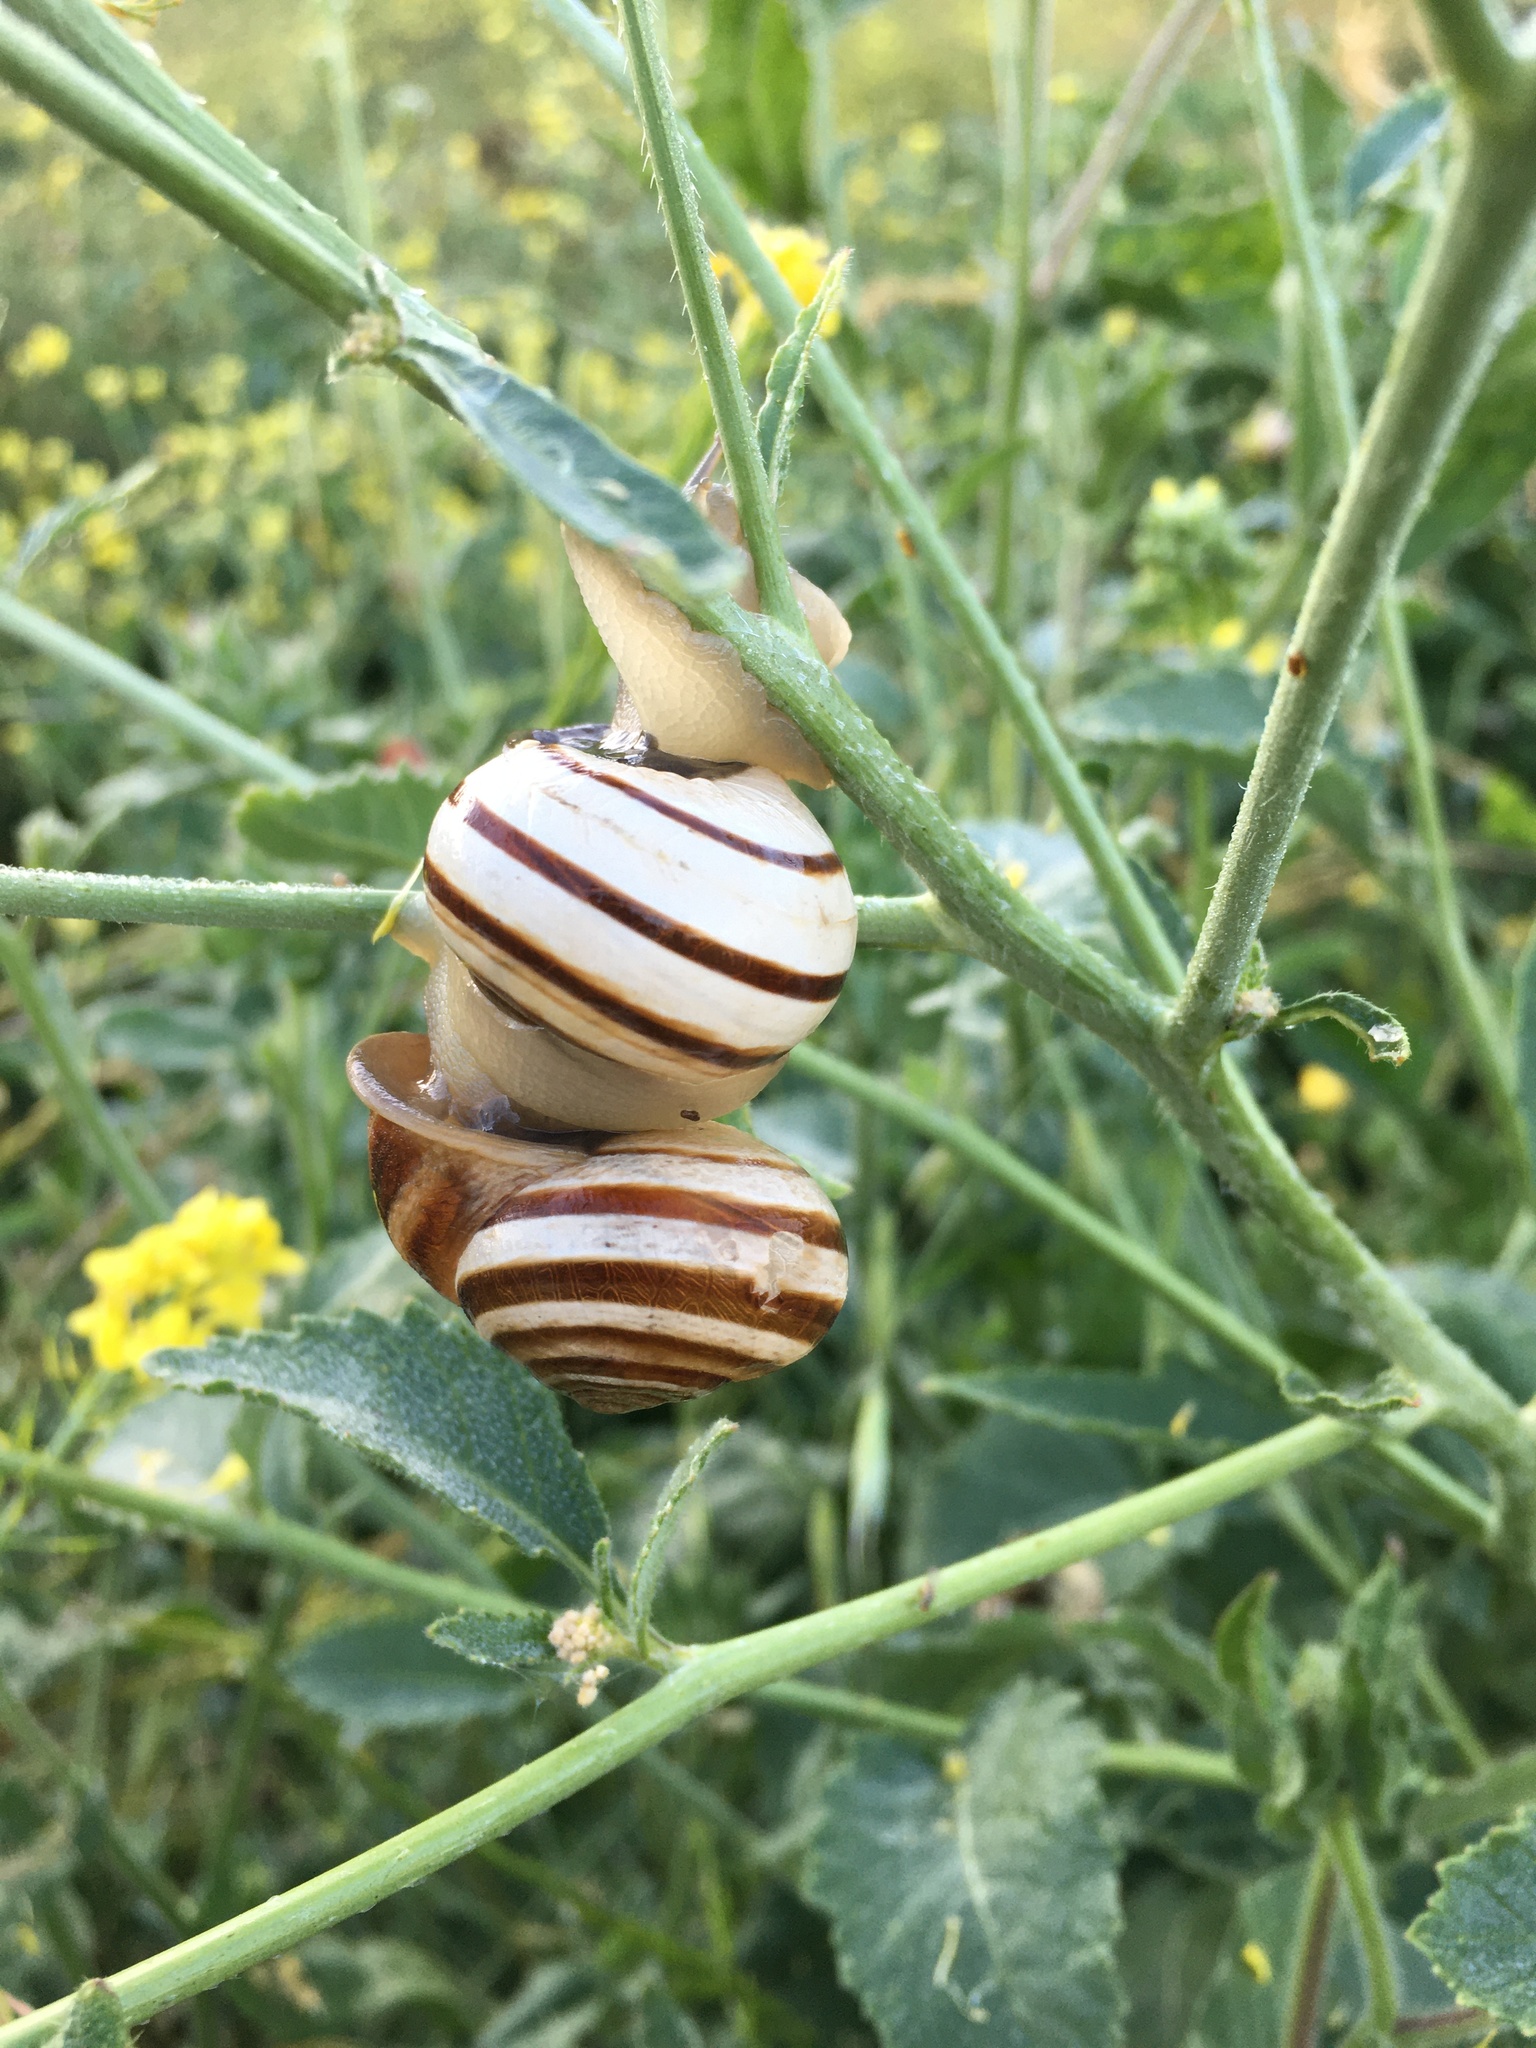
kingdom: Animalia
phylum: Mollusca
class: Gastropoda
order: Stylommatophora
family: Helicidae
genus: Otala
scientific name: Otala lactea
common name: Milk snail
